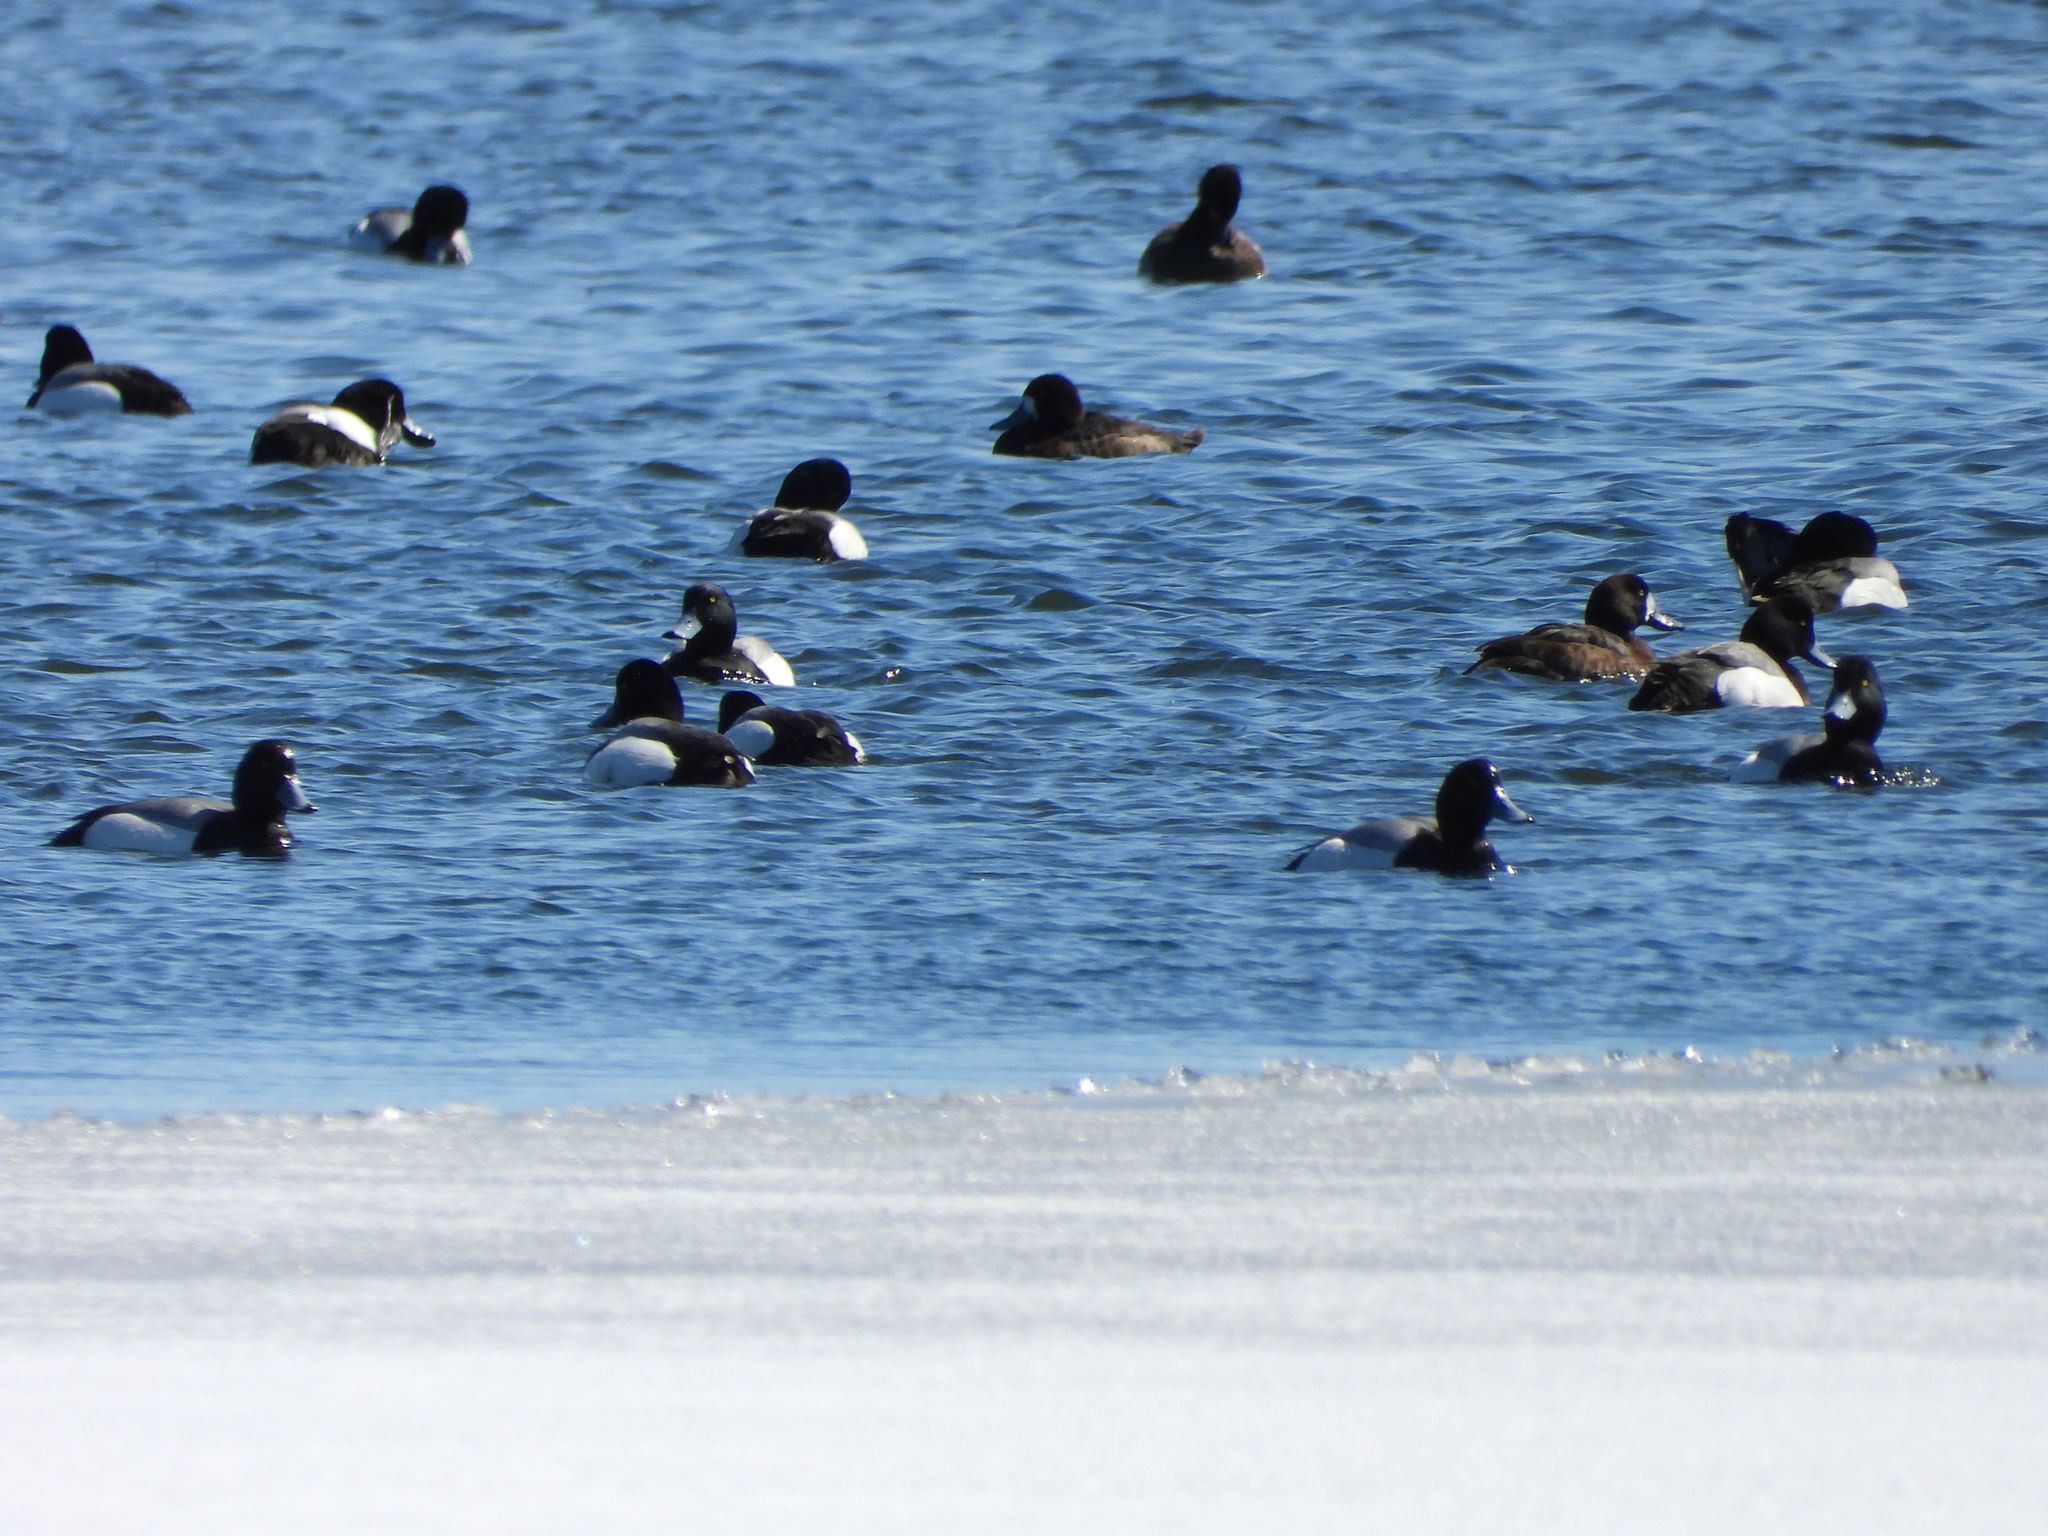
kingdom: Animalia
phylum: Chordata
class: Aves
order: Anseriformes
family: Anatidae
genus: Aythya
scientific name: Aythya marila
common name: Greater scaup
